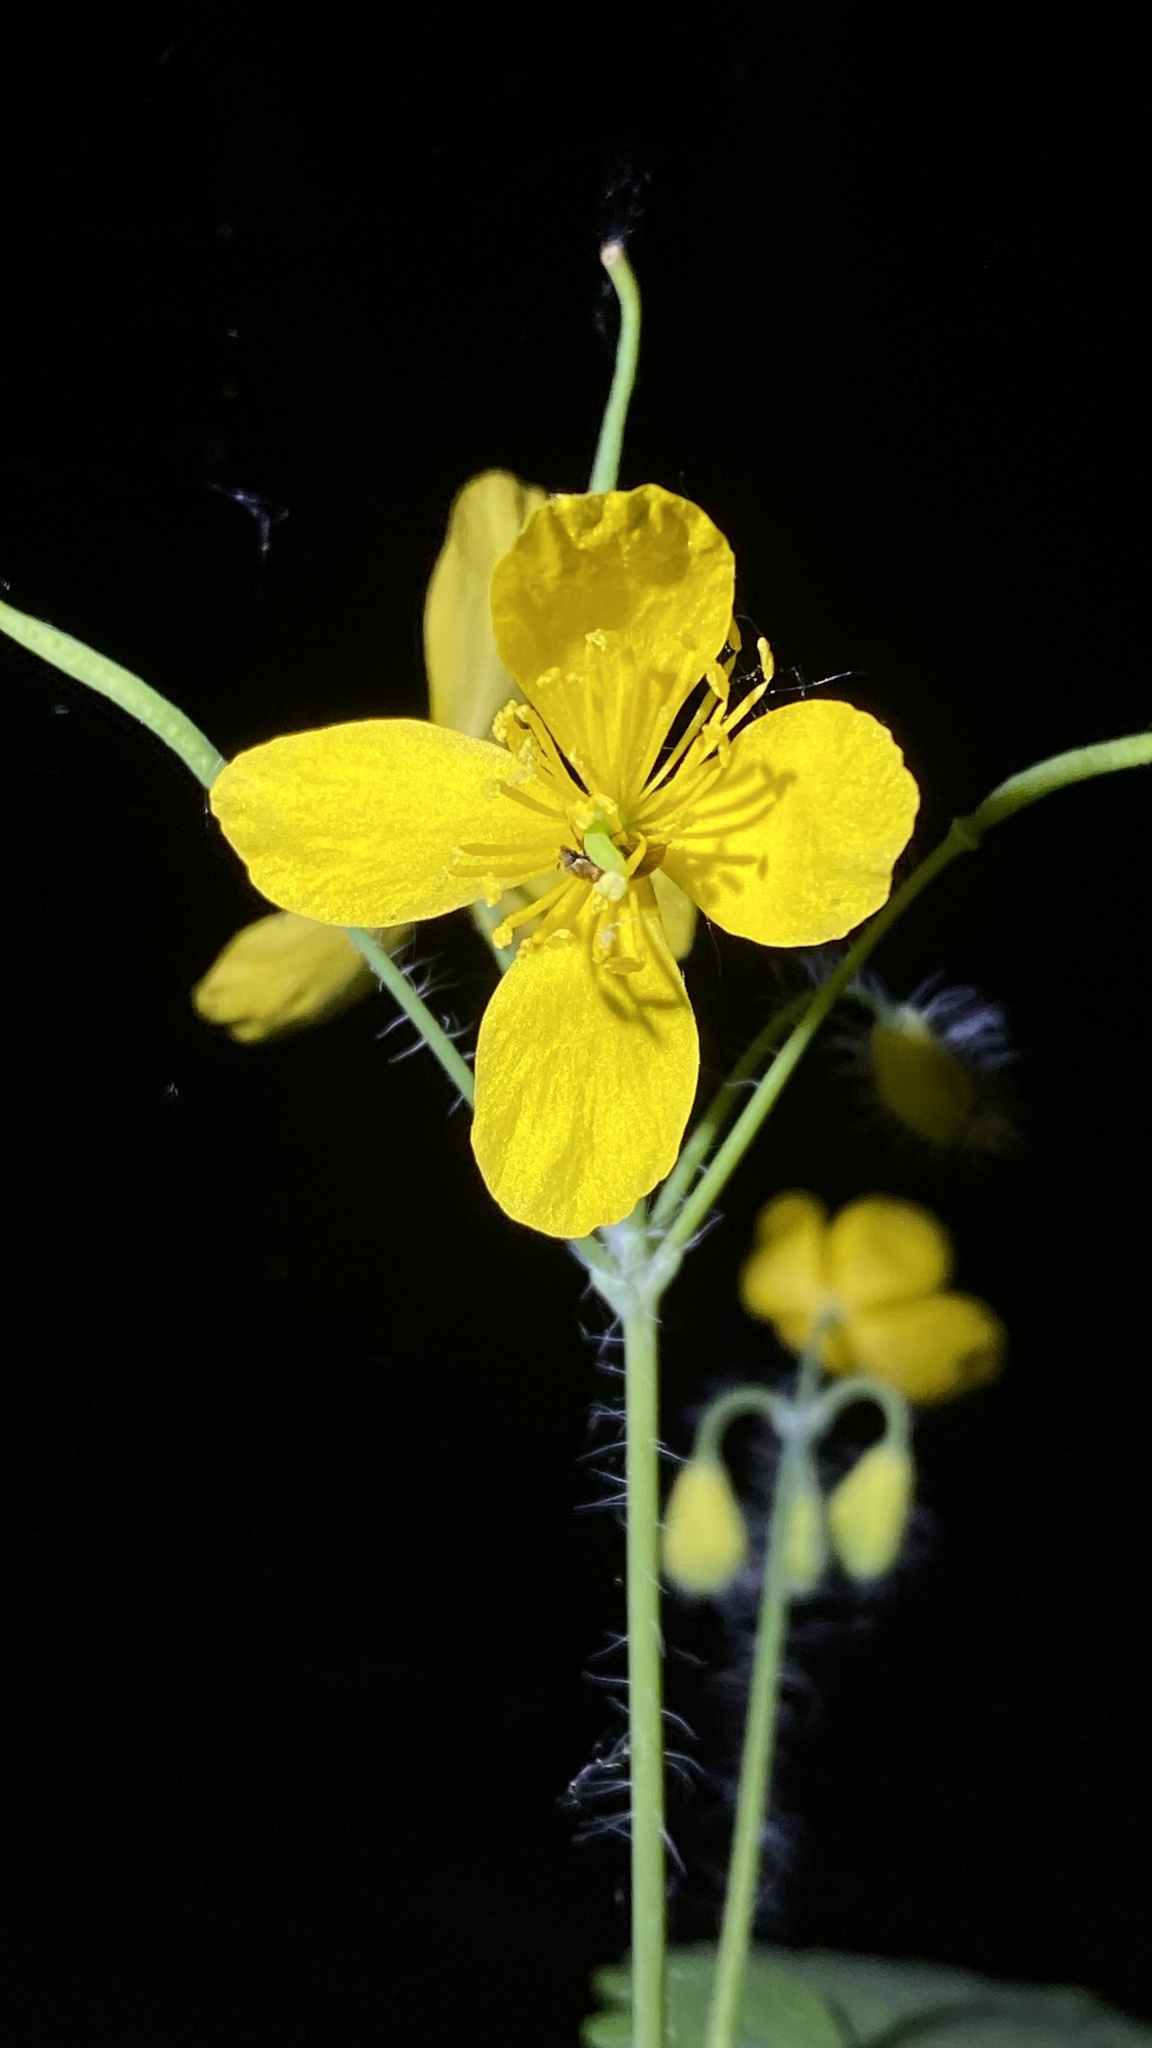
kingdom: Plantae
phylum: Tracheophyta
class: Magnoliopsida
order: Ranunculales
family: Papaveraceae
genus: Chelidonium
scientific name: Chelidonium majus
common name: Greater celandine
